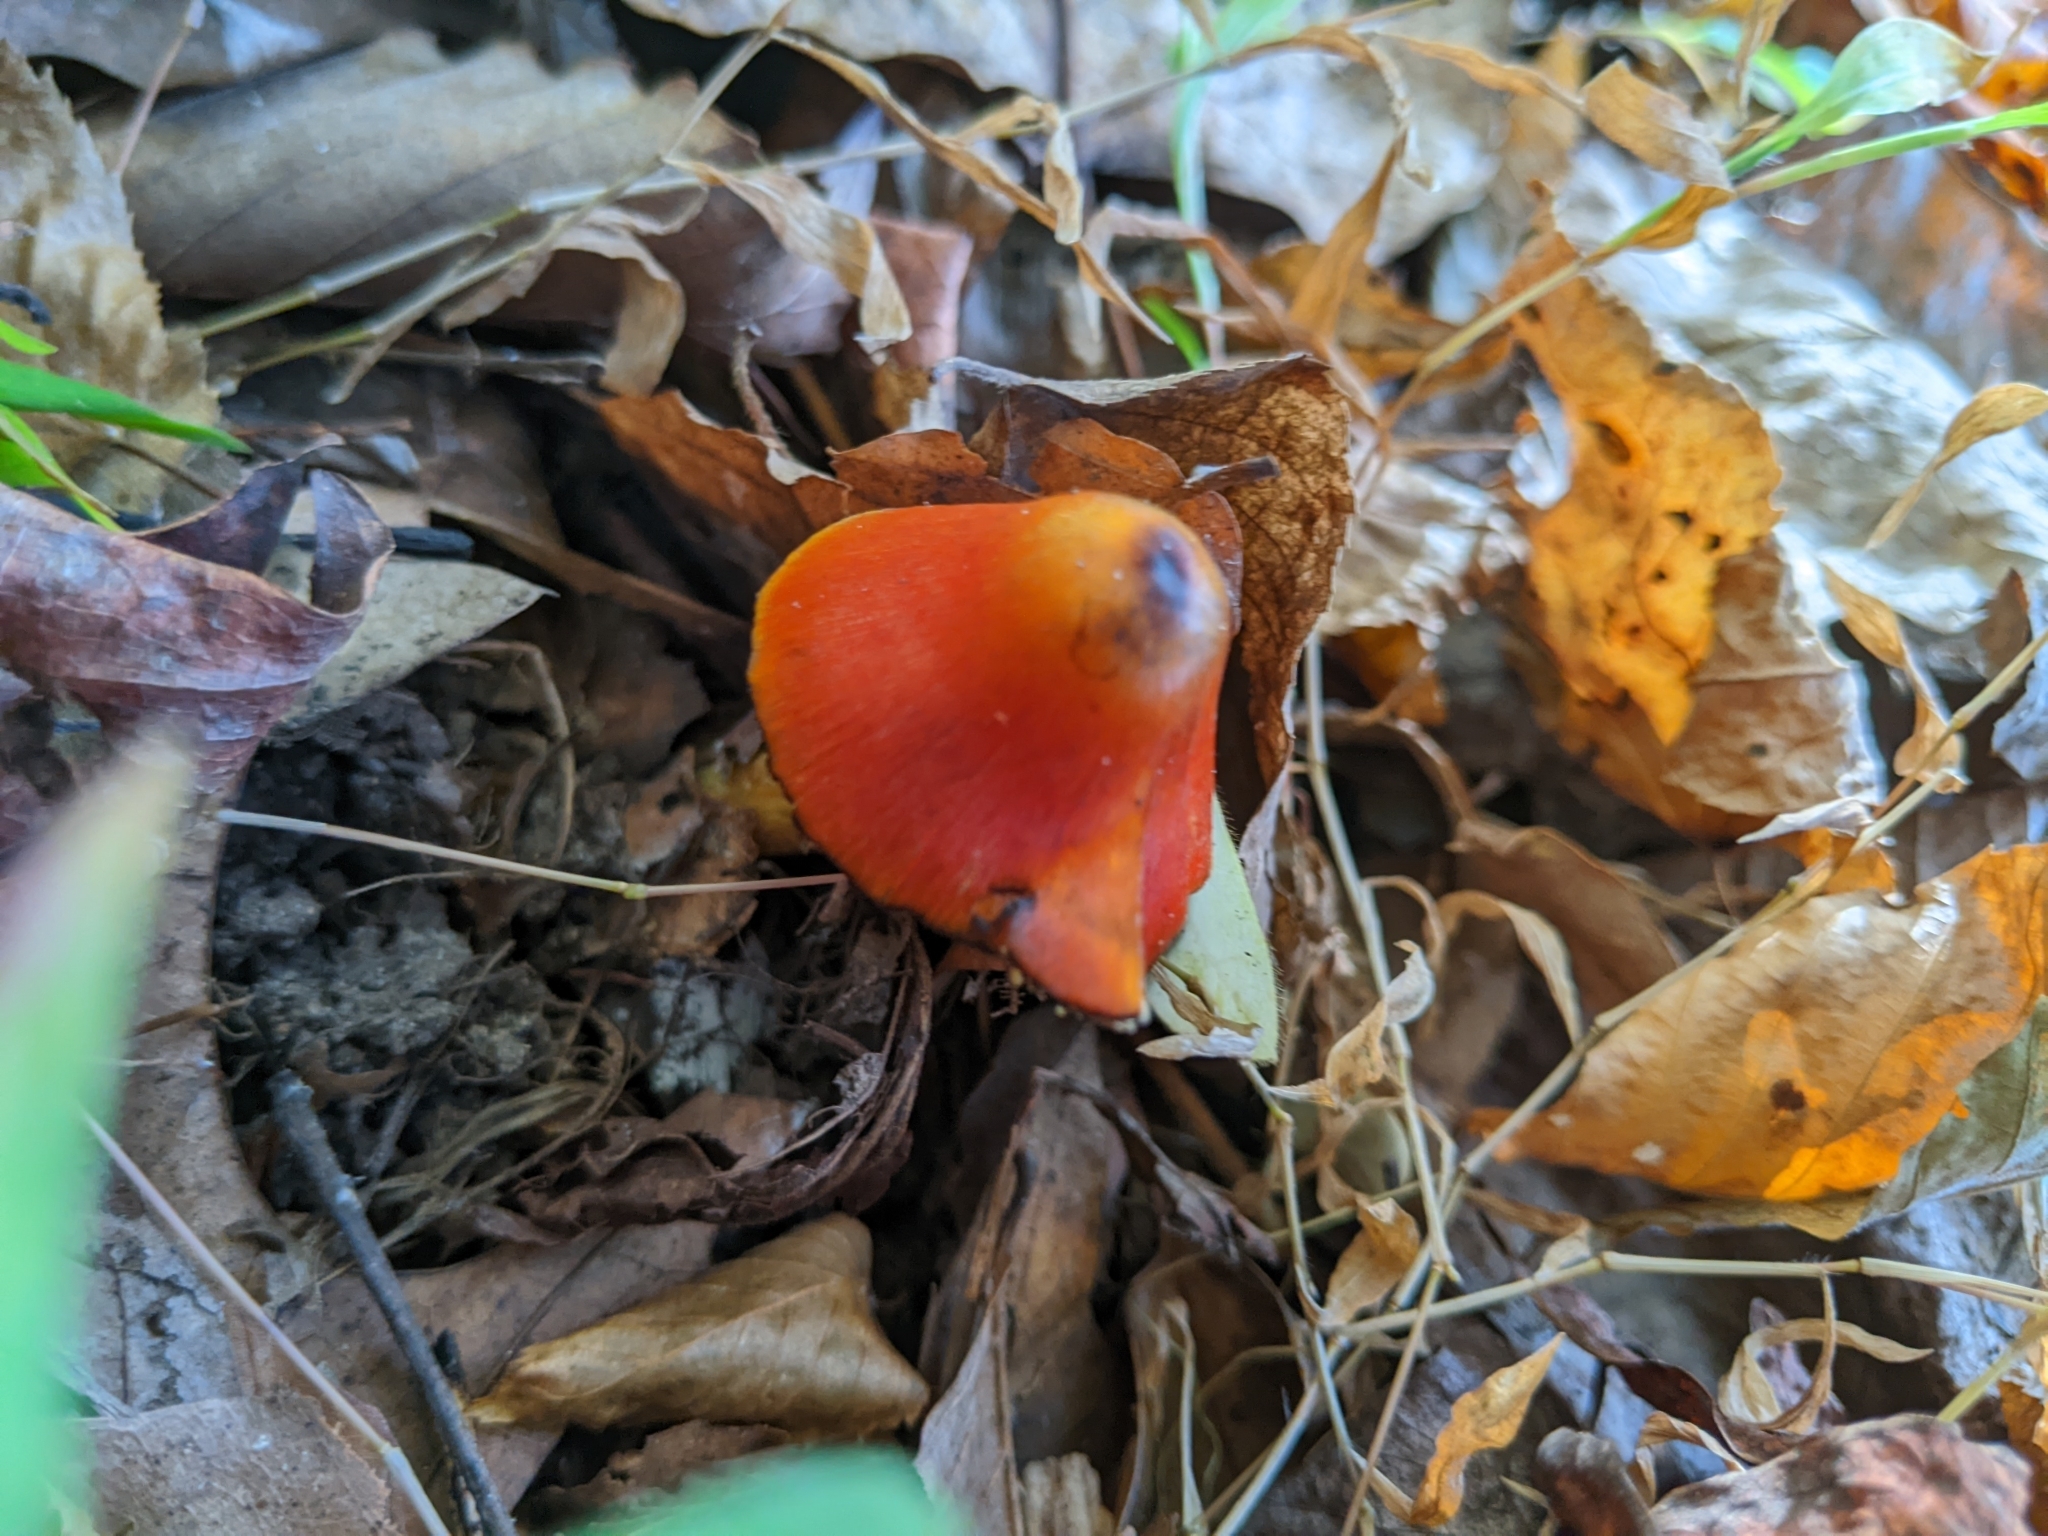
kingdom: Fungi
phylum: Basidiomycota
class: Agaricomycetes
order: Agaricales
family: Hygrophoraceae
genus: Hygrocybe
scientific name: Hygrocybe conica
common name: Blackening wax-cap
